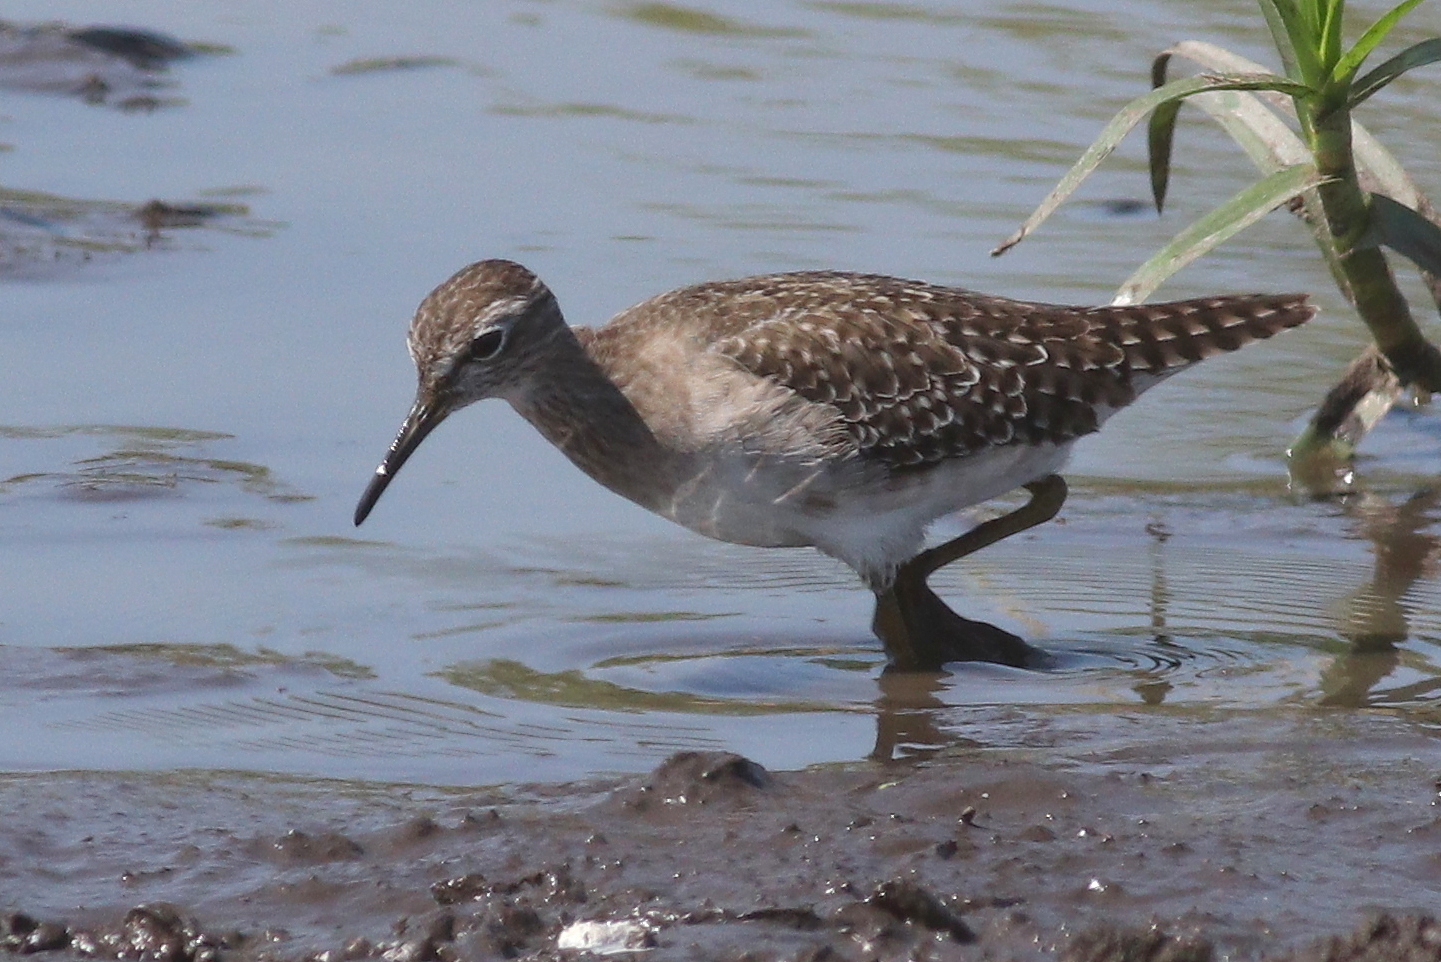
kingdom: Animalia
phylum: Chordata
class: Aves
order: Charadriiformes
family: Scolopacidae
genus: Tringa
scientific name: Tringa glareola
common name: Wood sandpiper
